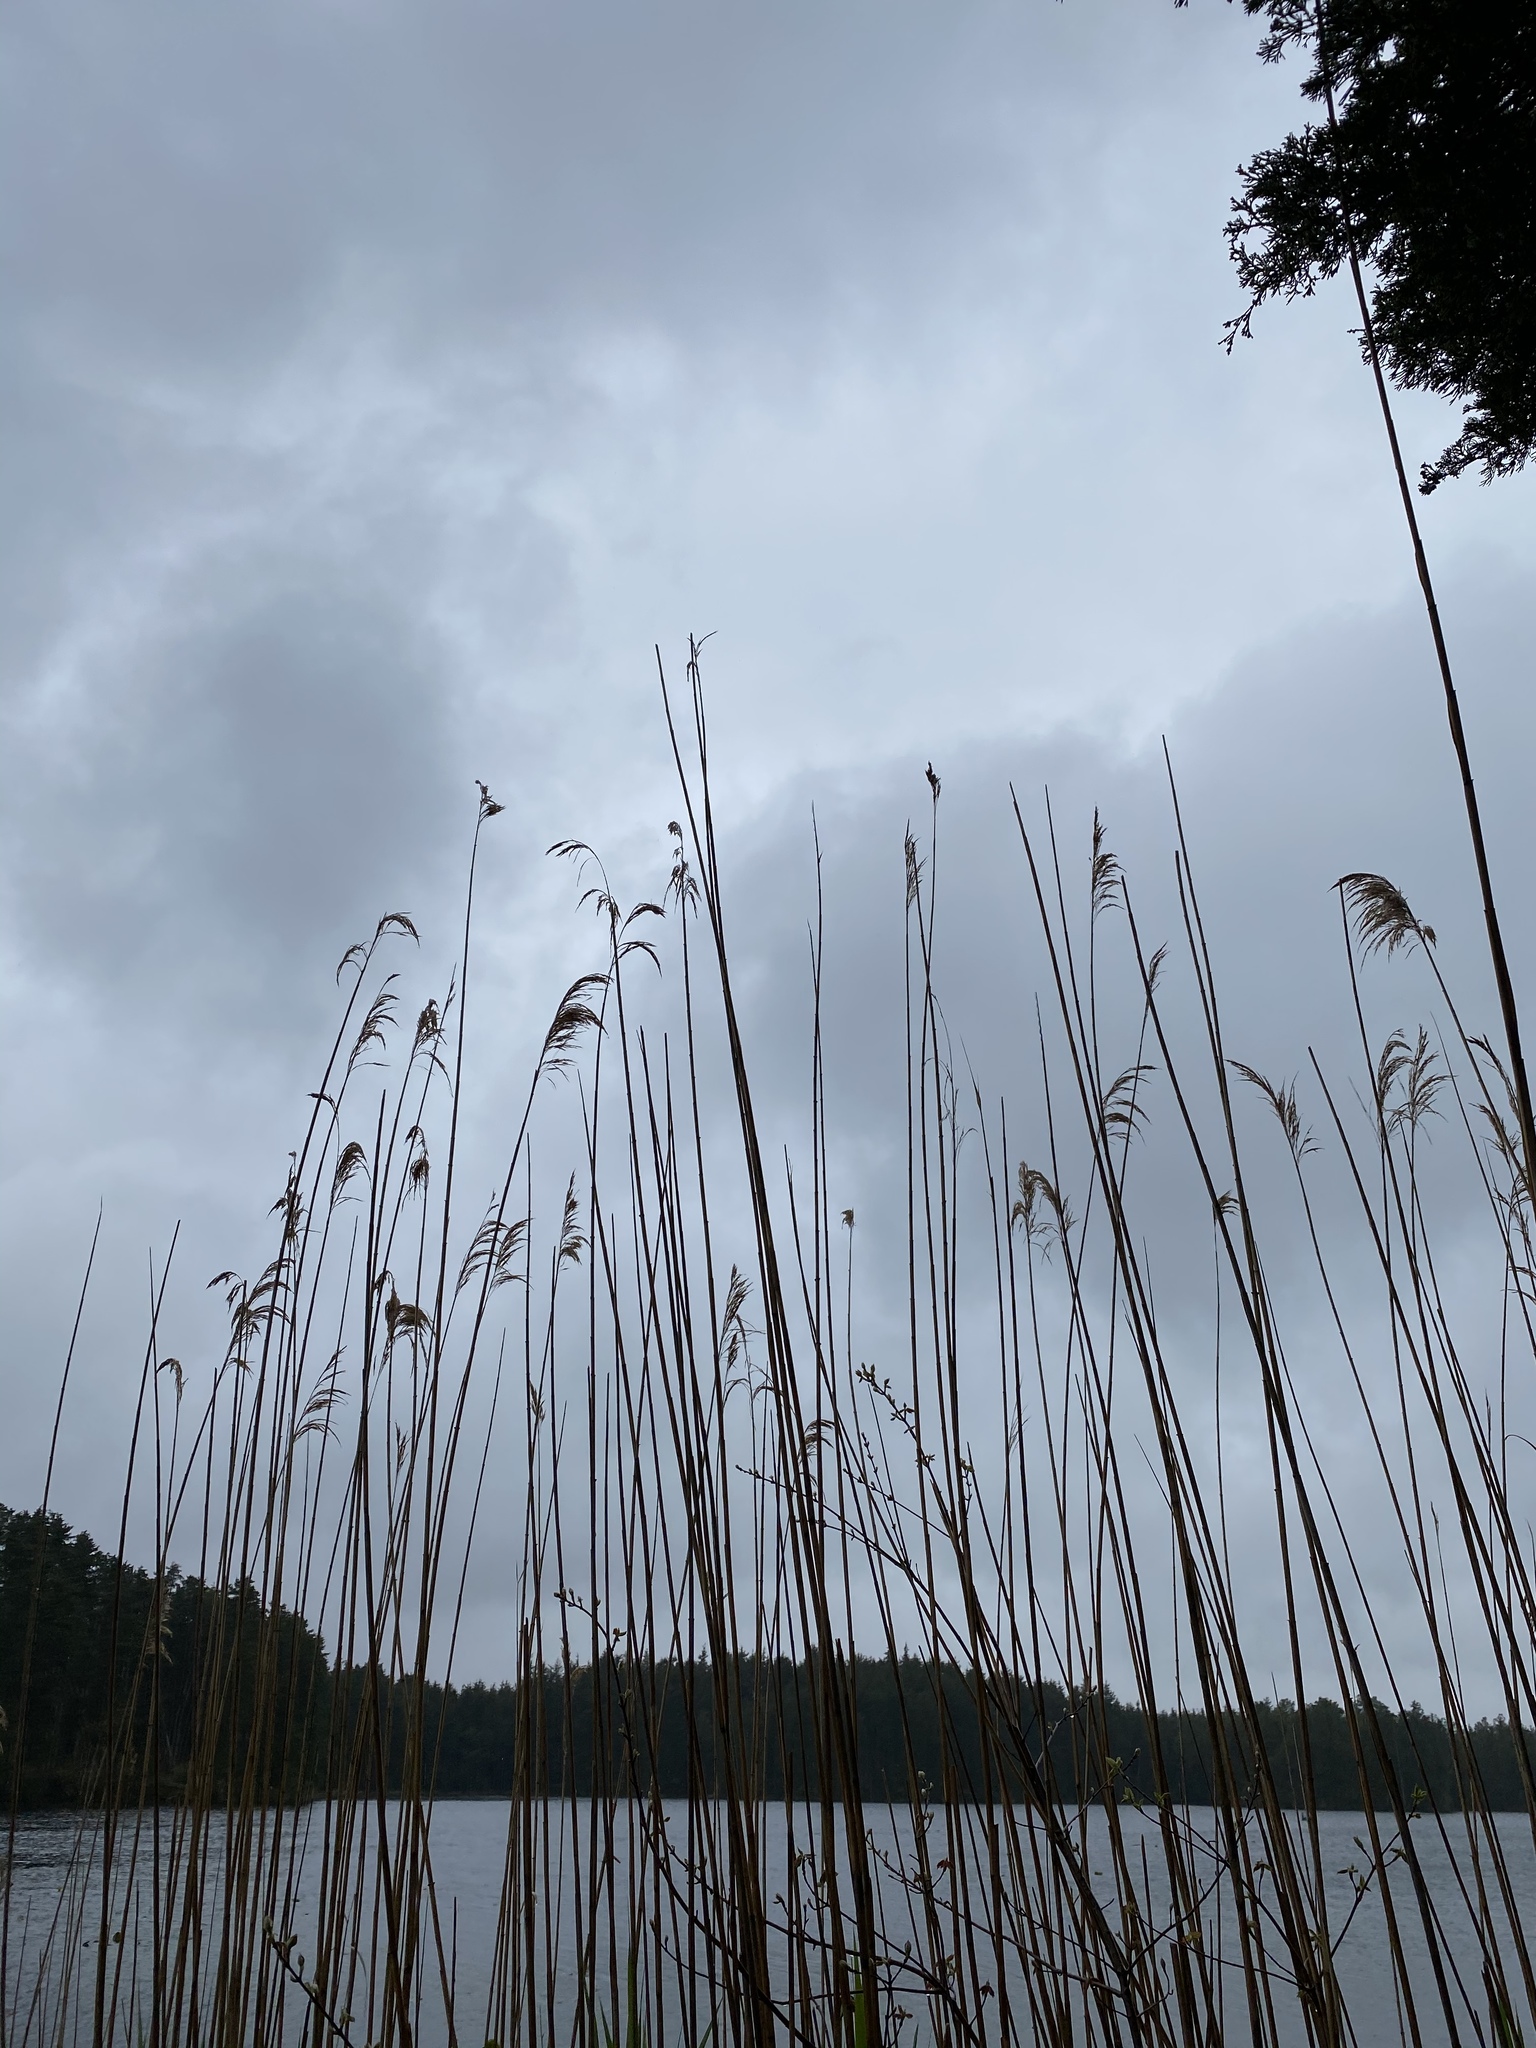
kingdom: Plantae
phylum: Tracheophyta
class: Liliopsida
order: Poales
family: Poaceae
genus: Phragmites
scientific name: Phragmites australis
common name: Common reed
